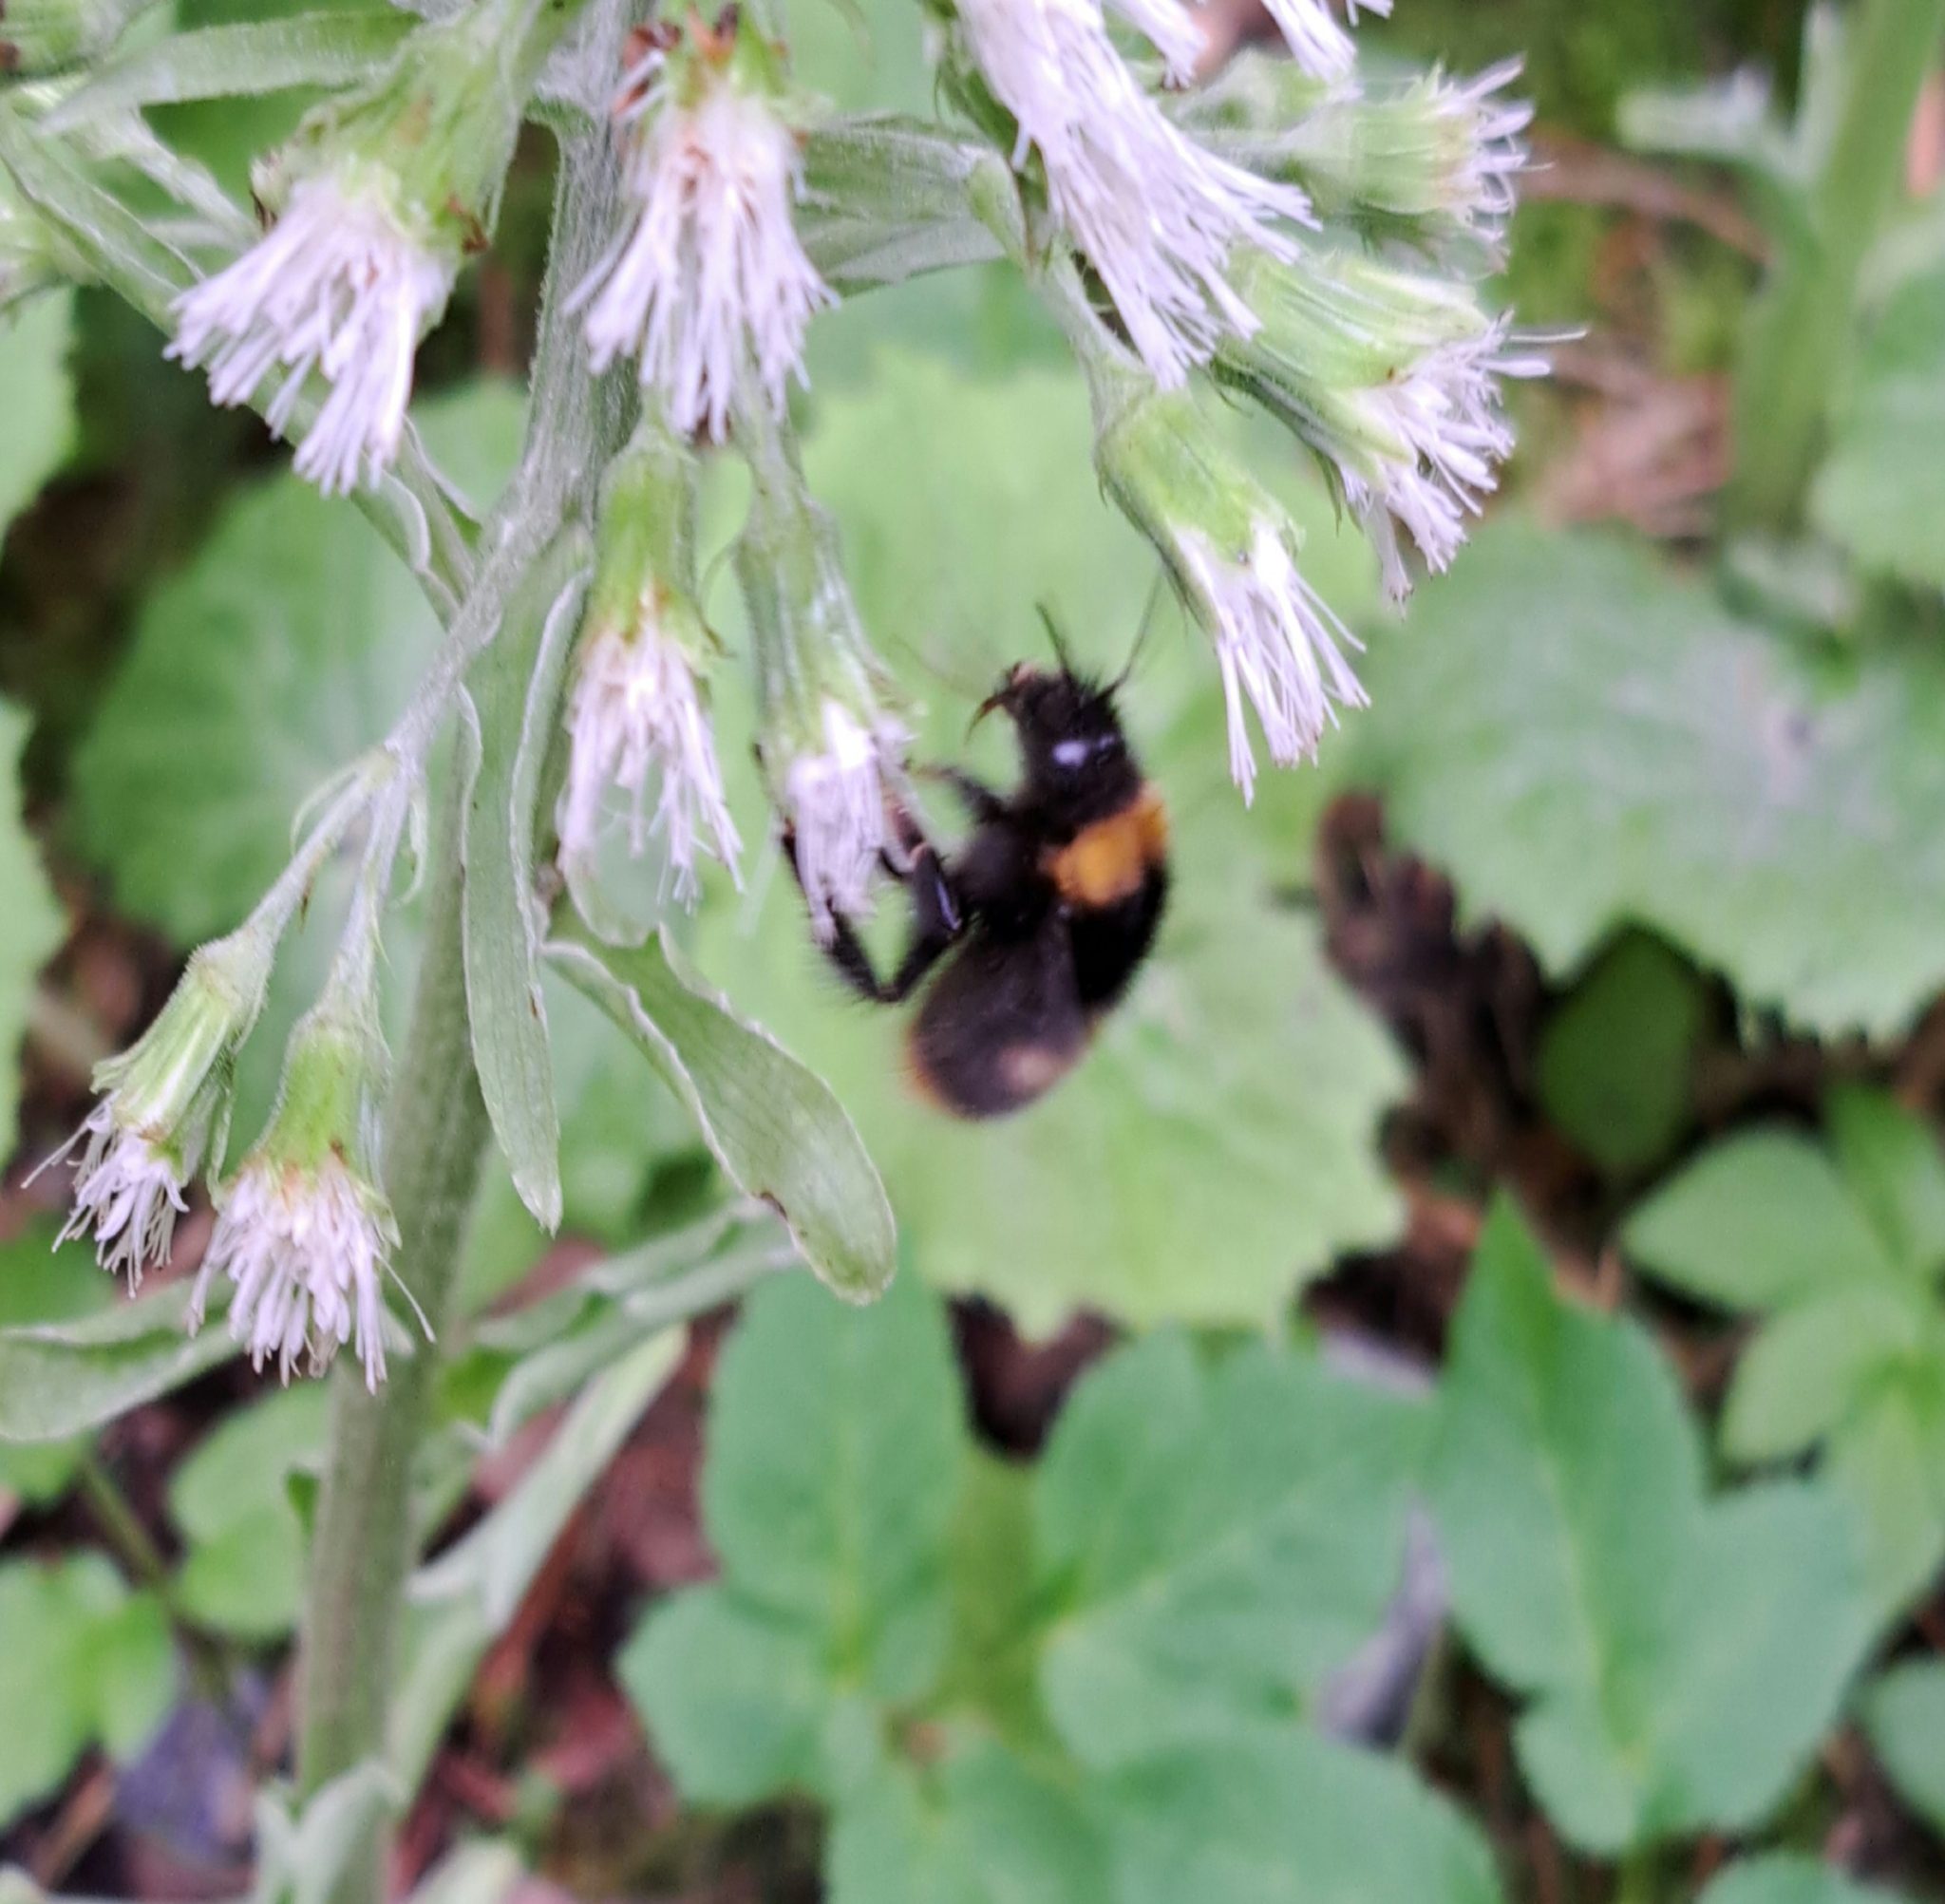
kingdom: Animalia
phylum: Arthropoda
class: Insecta
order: Hymenoptera
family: Apidae
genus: Bombus
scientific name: Bombus pratorum
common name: Early humble-bee
